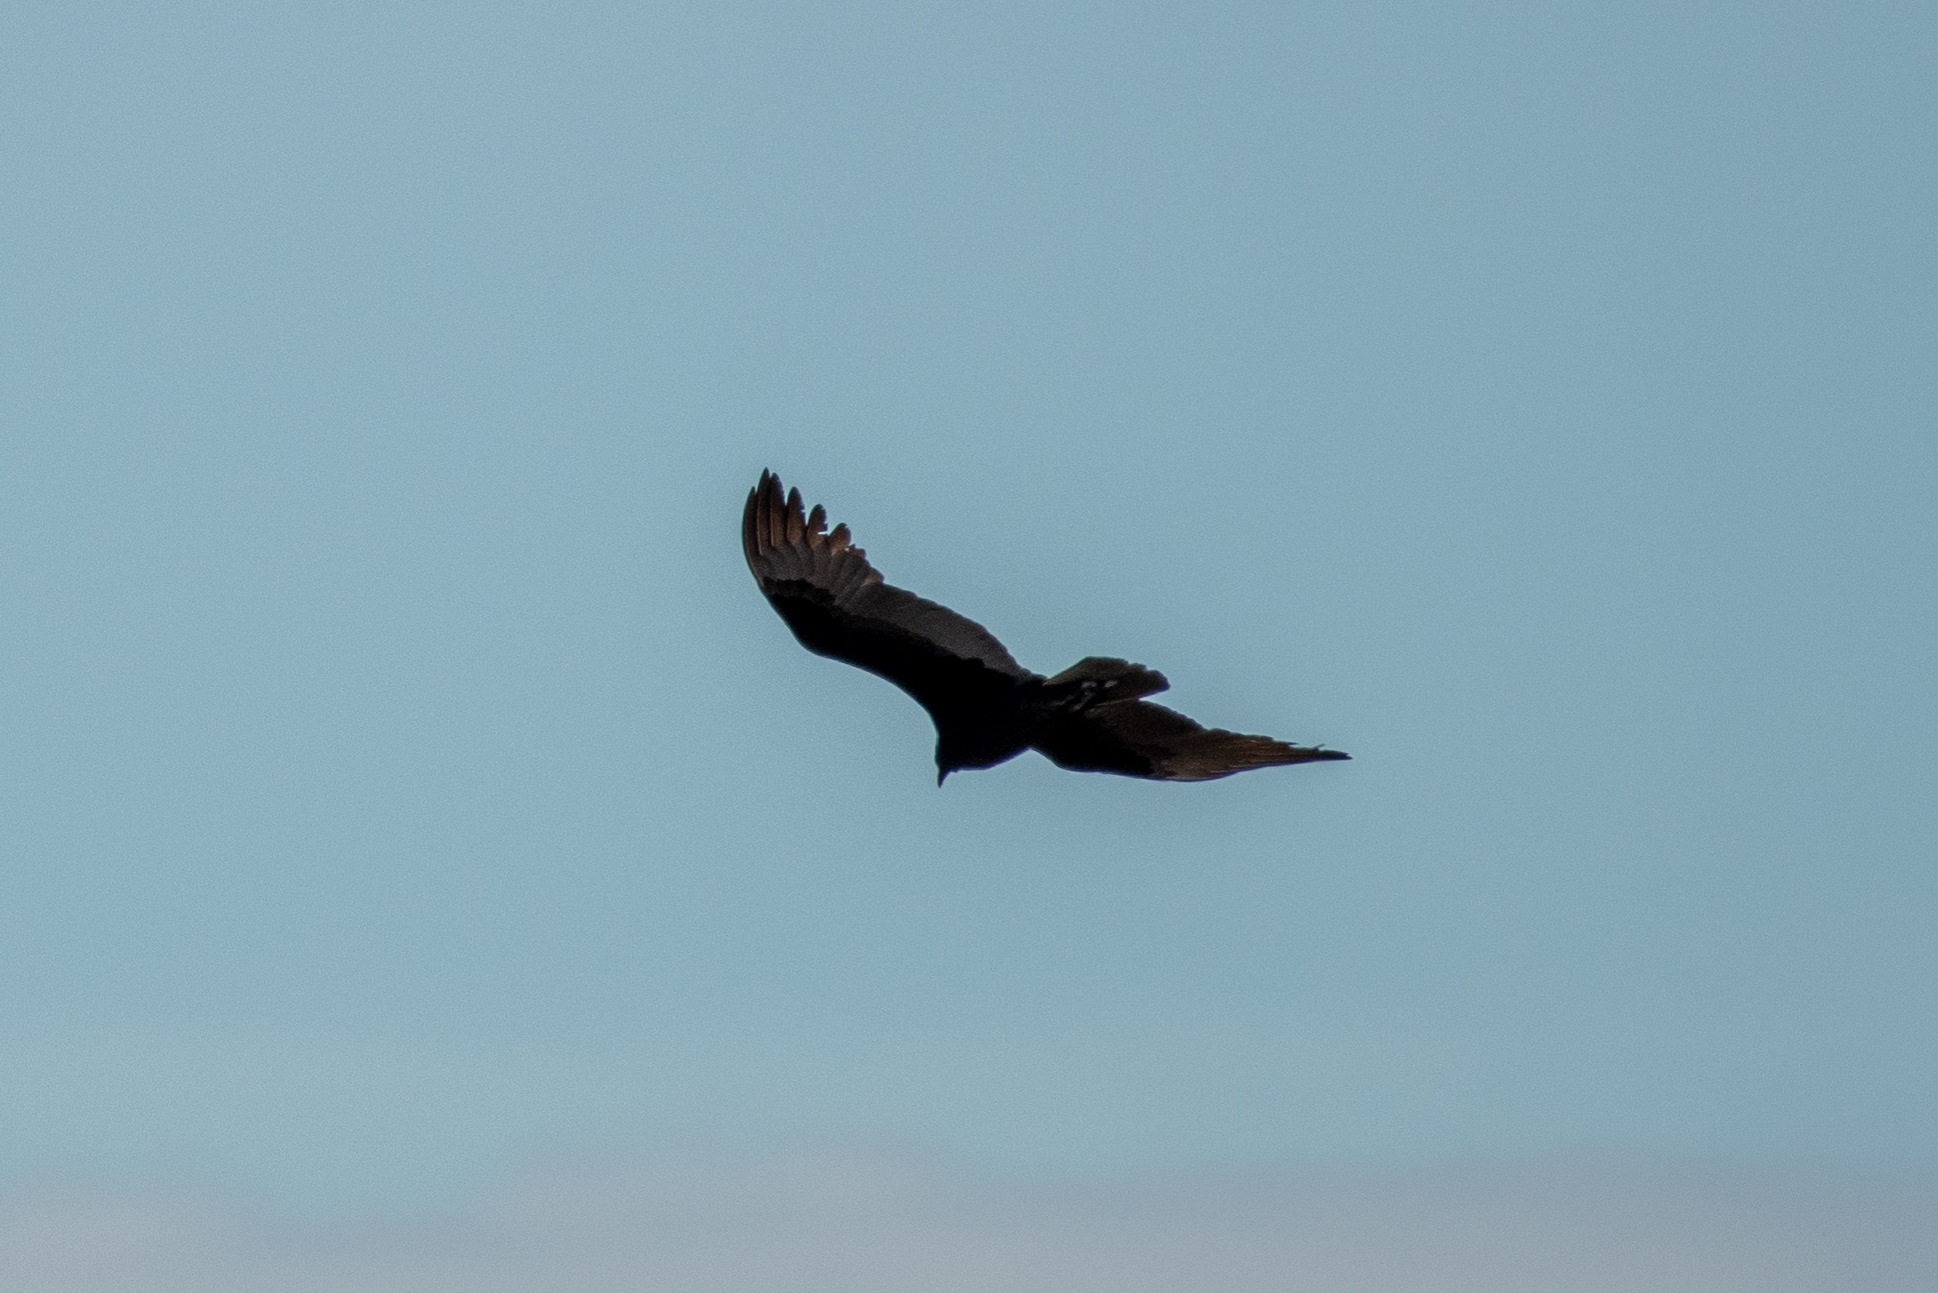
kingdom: Animalia
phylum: Chordata
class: Aves
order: Accipitriformes
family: Cathartidae
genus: Cathartes
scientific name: Cathartes aura
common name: Turkey vulture
